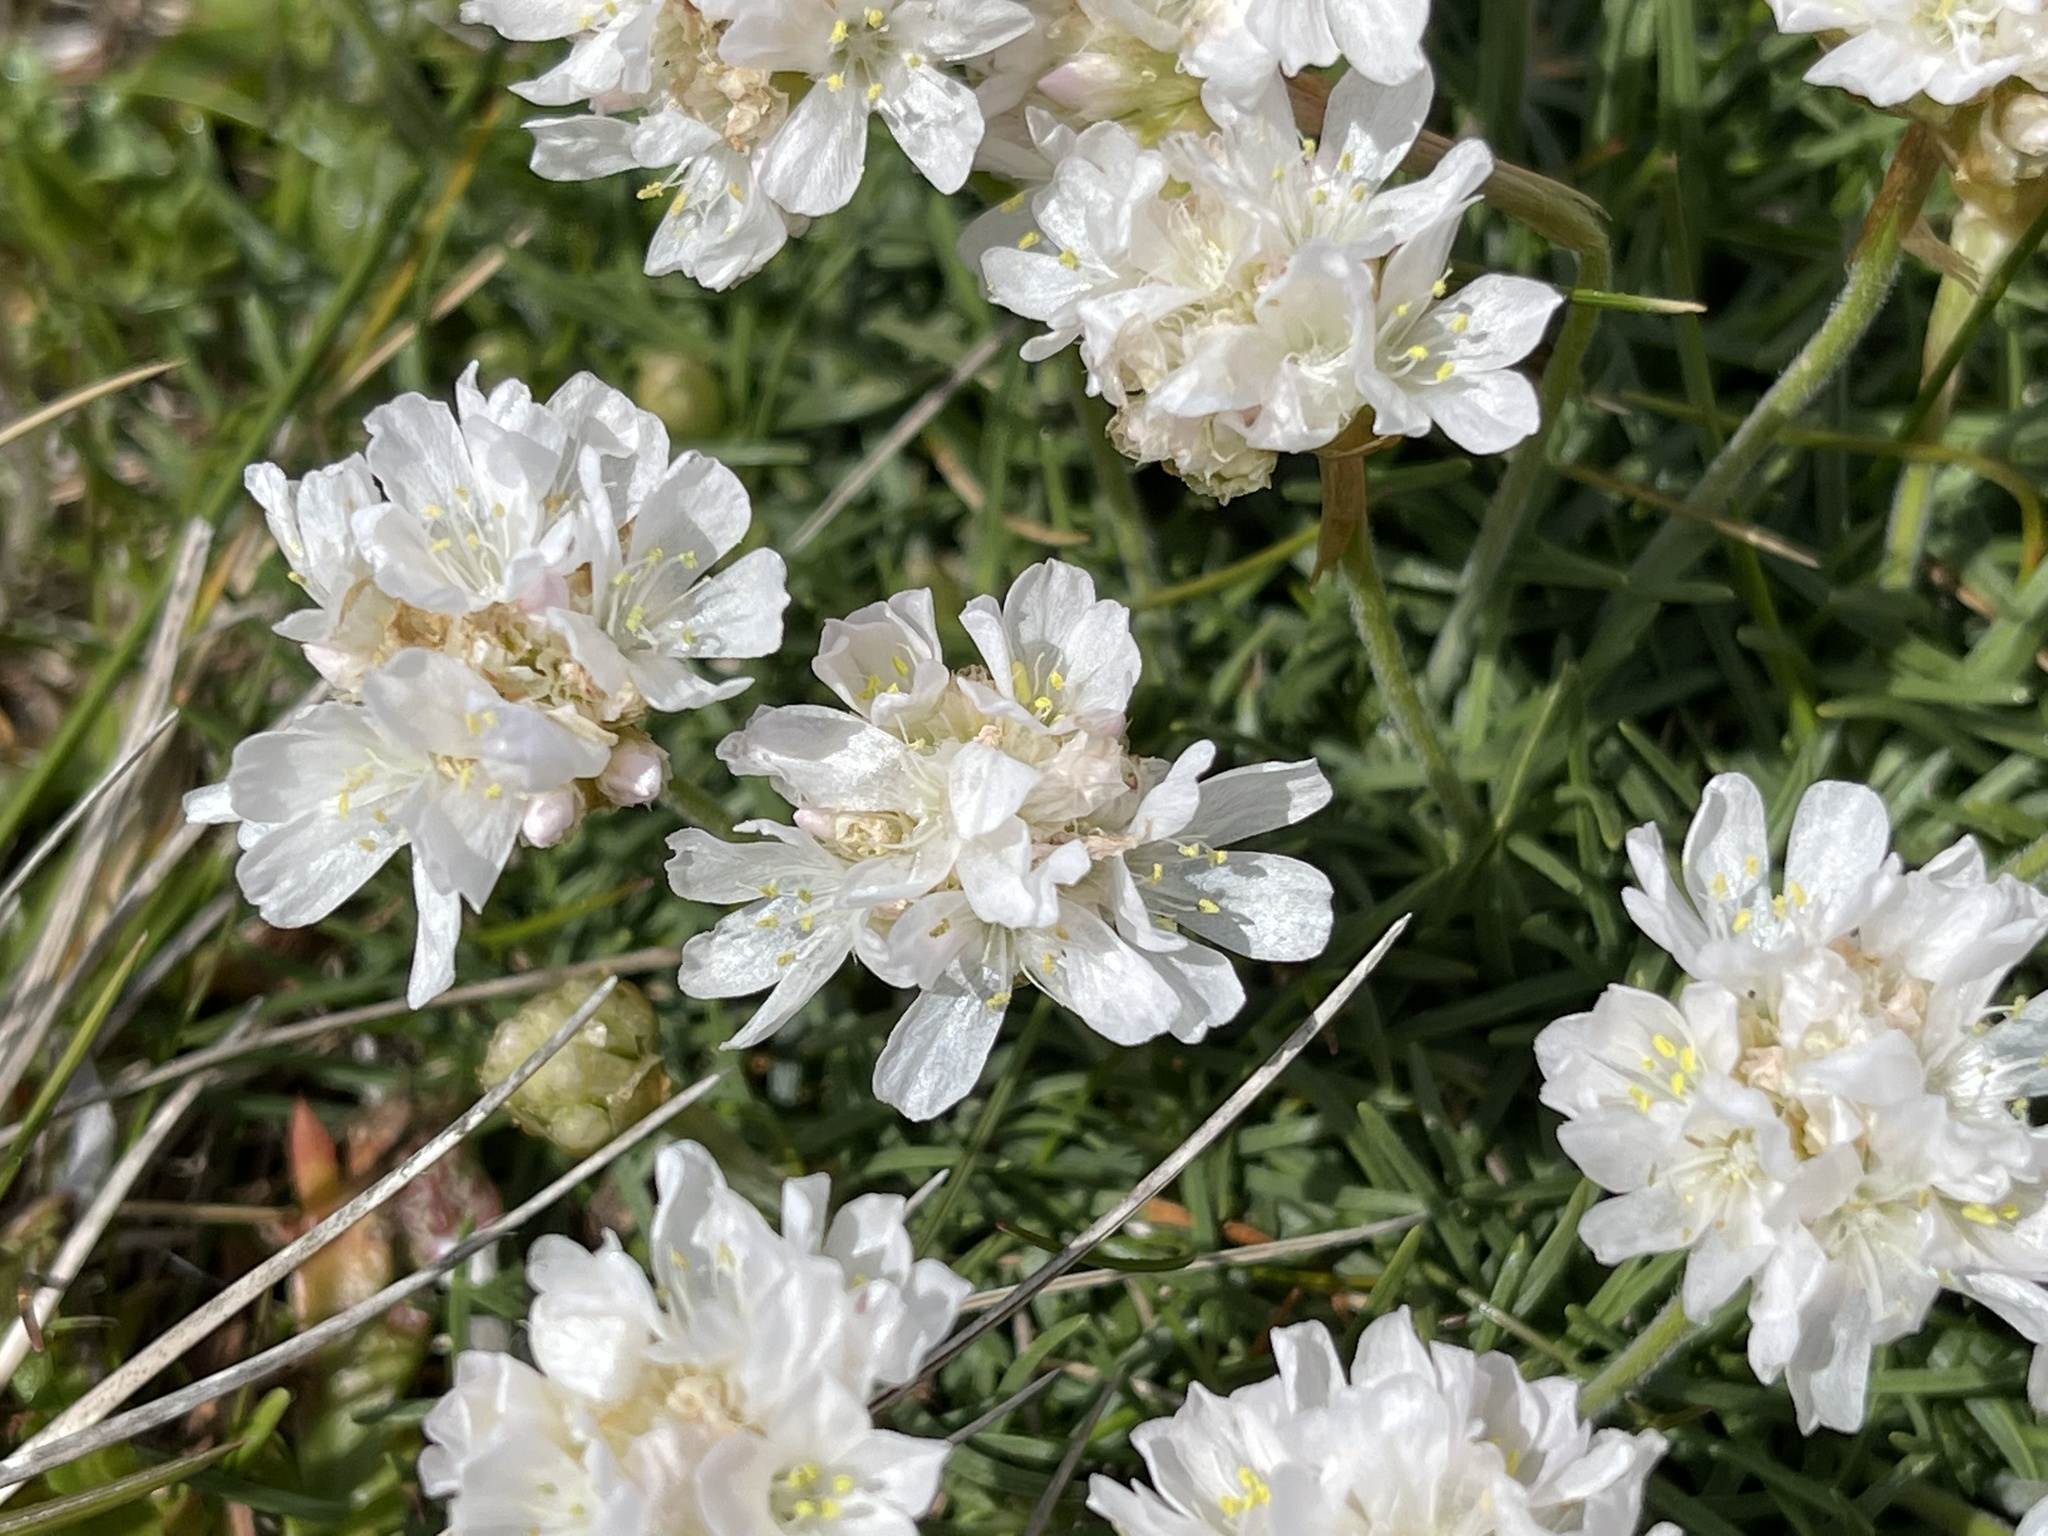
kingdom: Plantae
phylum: Tracheophyta
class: Magnoliopsida
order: Caryophyllales
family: Plumbaginaceae
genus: Armeria
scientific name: Armeria maritima
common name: Thrift
